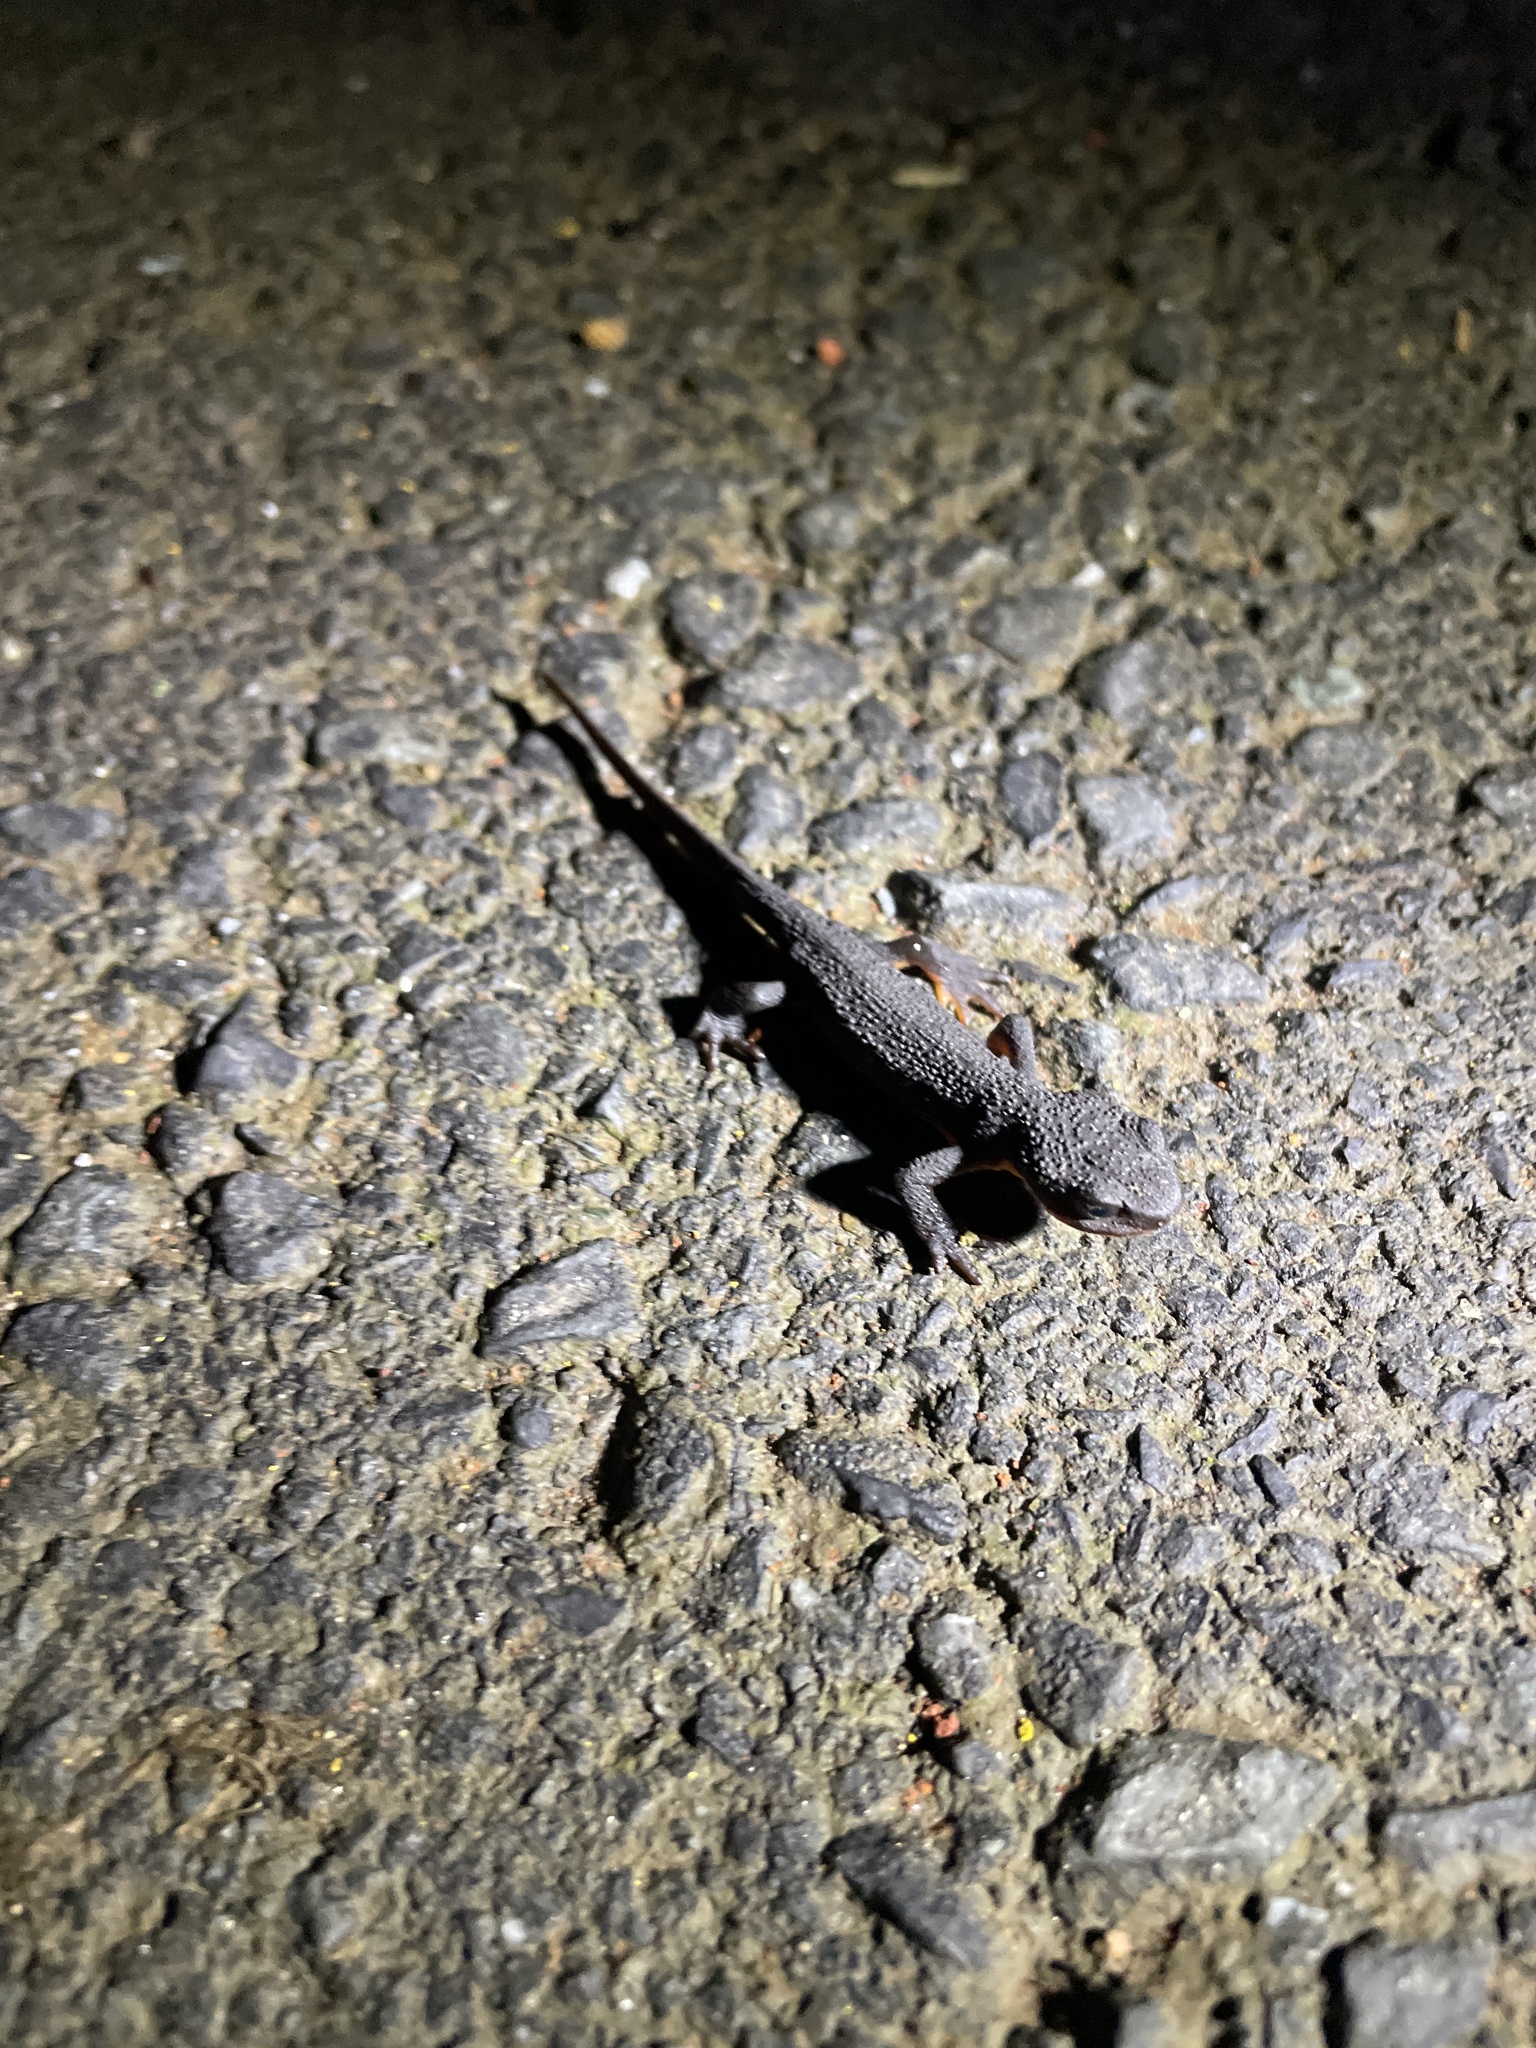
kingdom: Animalia
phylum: Chordata
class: Amphibia
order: Caudata
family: Salamandridae
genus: Taricha
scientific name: Taricha granulosa
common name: Roughskin newt
